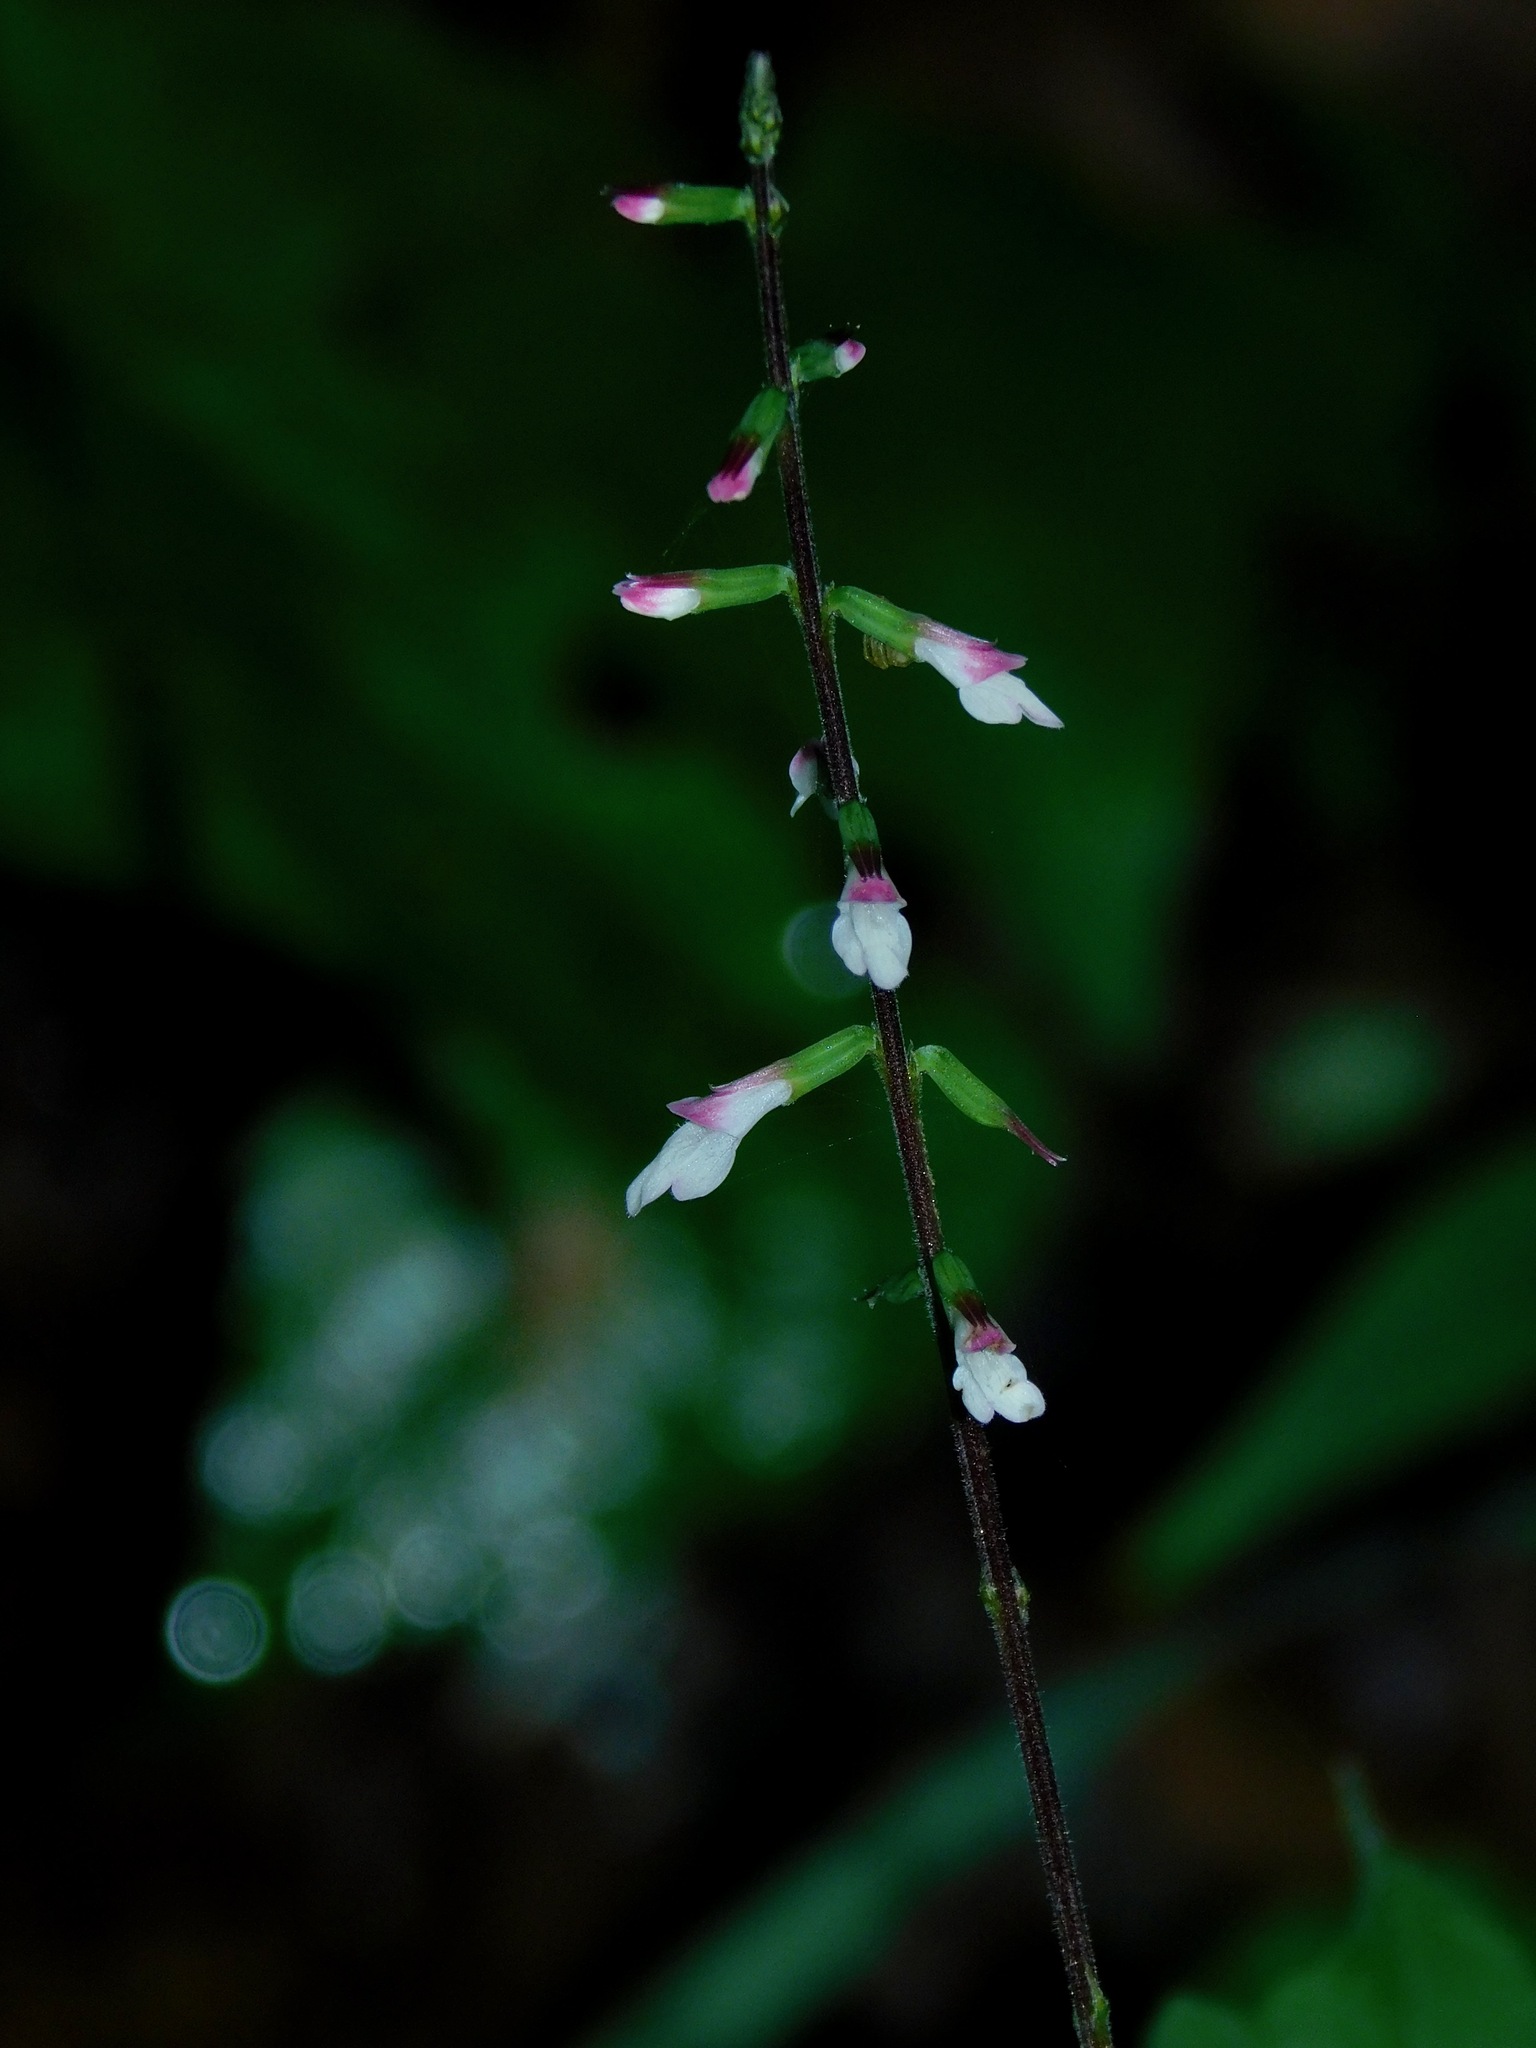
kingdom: Plantae
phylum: Tracheophyta
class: Magnoliopsida
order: Lamiales
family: Phrymaceae
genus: Phryma
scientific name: Phryma leptostachya
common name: American lopseed
